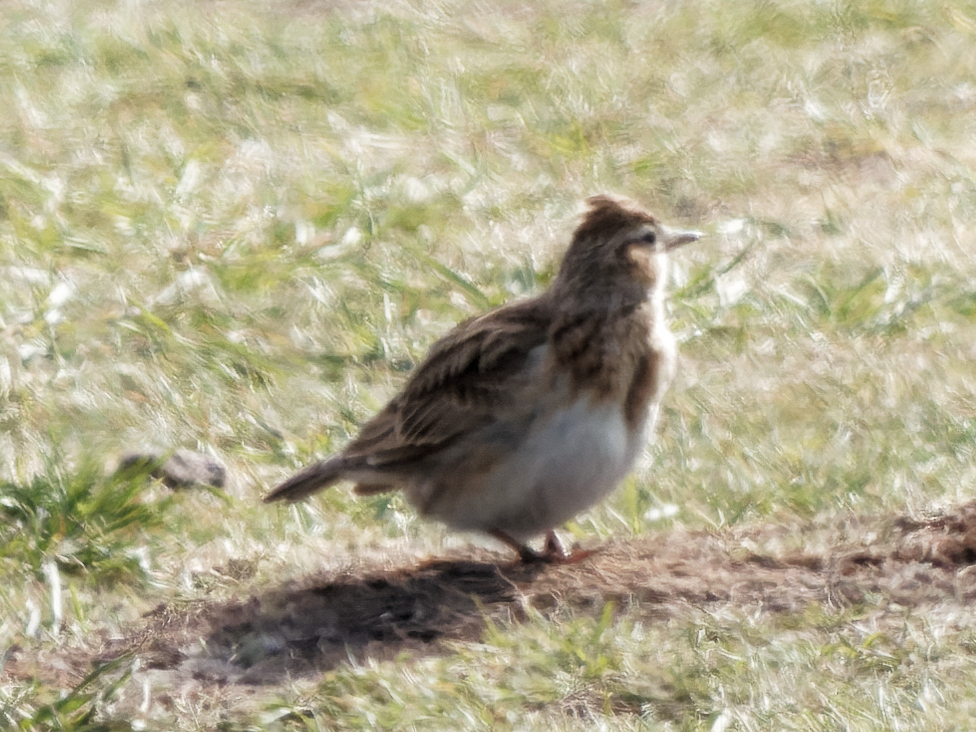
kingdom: Animalia
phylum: Chordata
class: Aves
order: Passeriformes
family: Alaudidae
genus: Alauda
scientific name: Alauda arvensis
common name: Eurasian skylark
